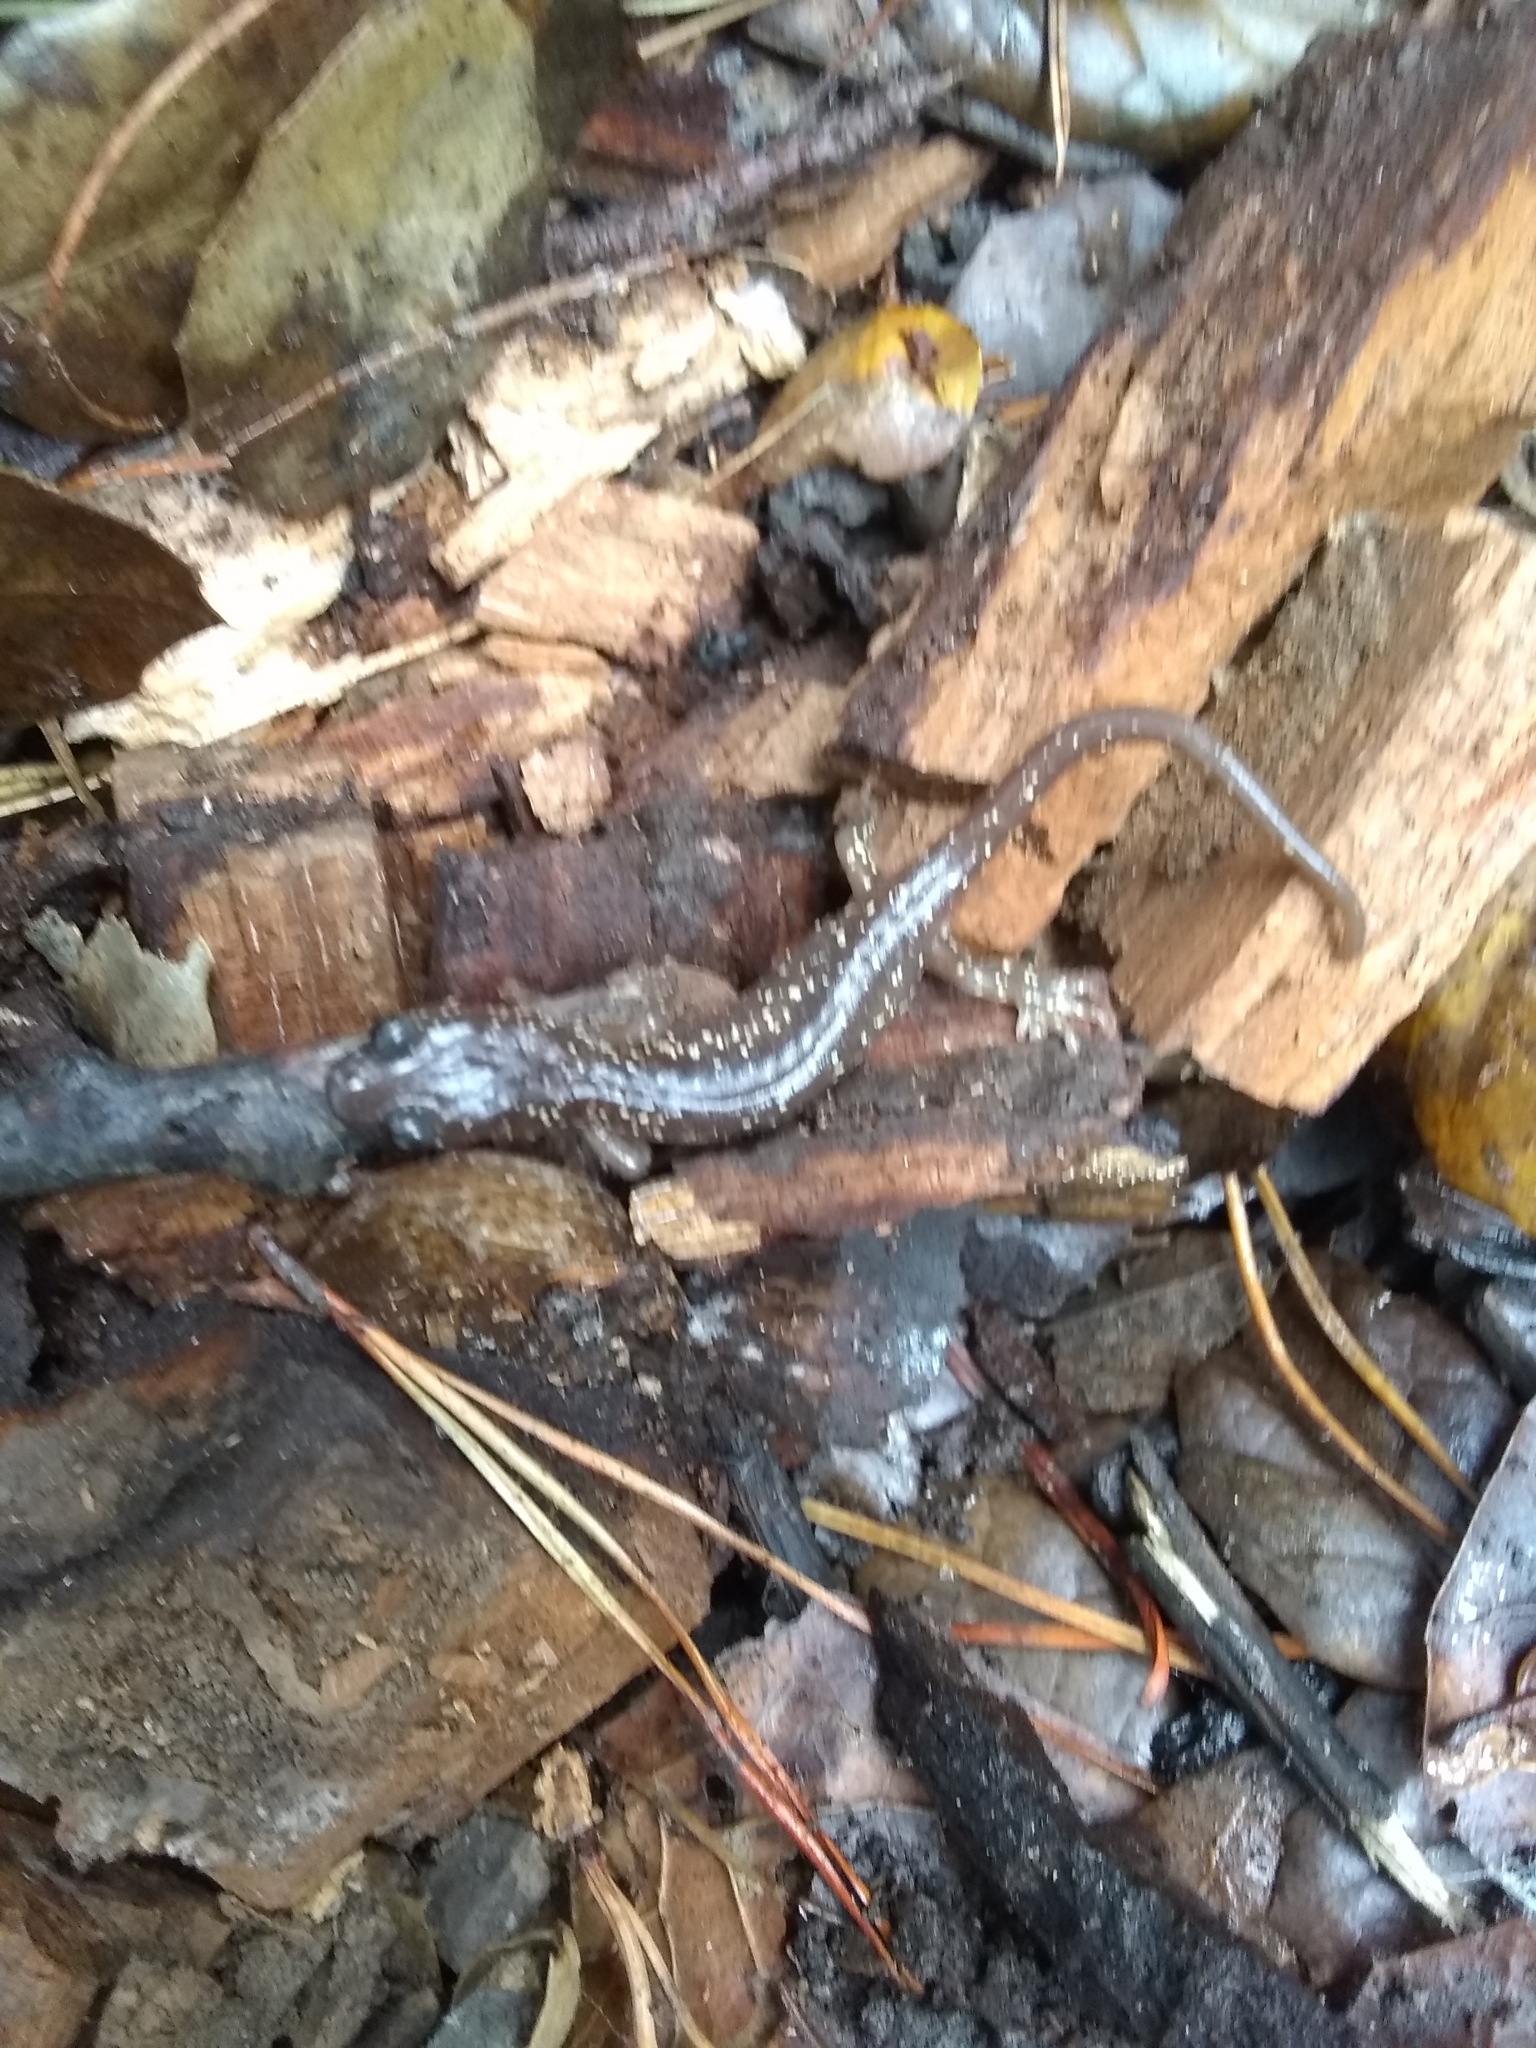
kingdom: Animalia
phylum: Chordata
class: Amphibia
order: Caudata
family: Plethodontidae
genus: Aneides
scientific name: Aneides lugubris
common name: Arboreal salamander
